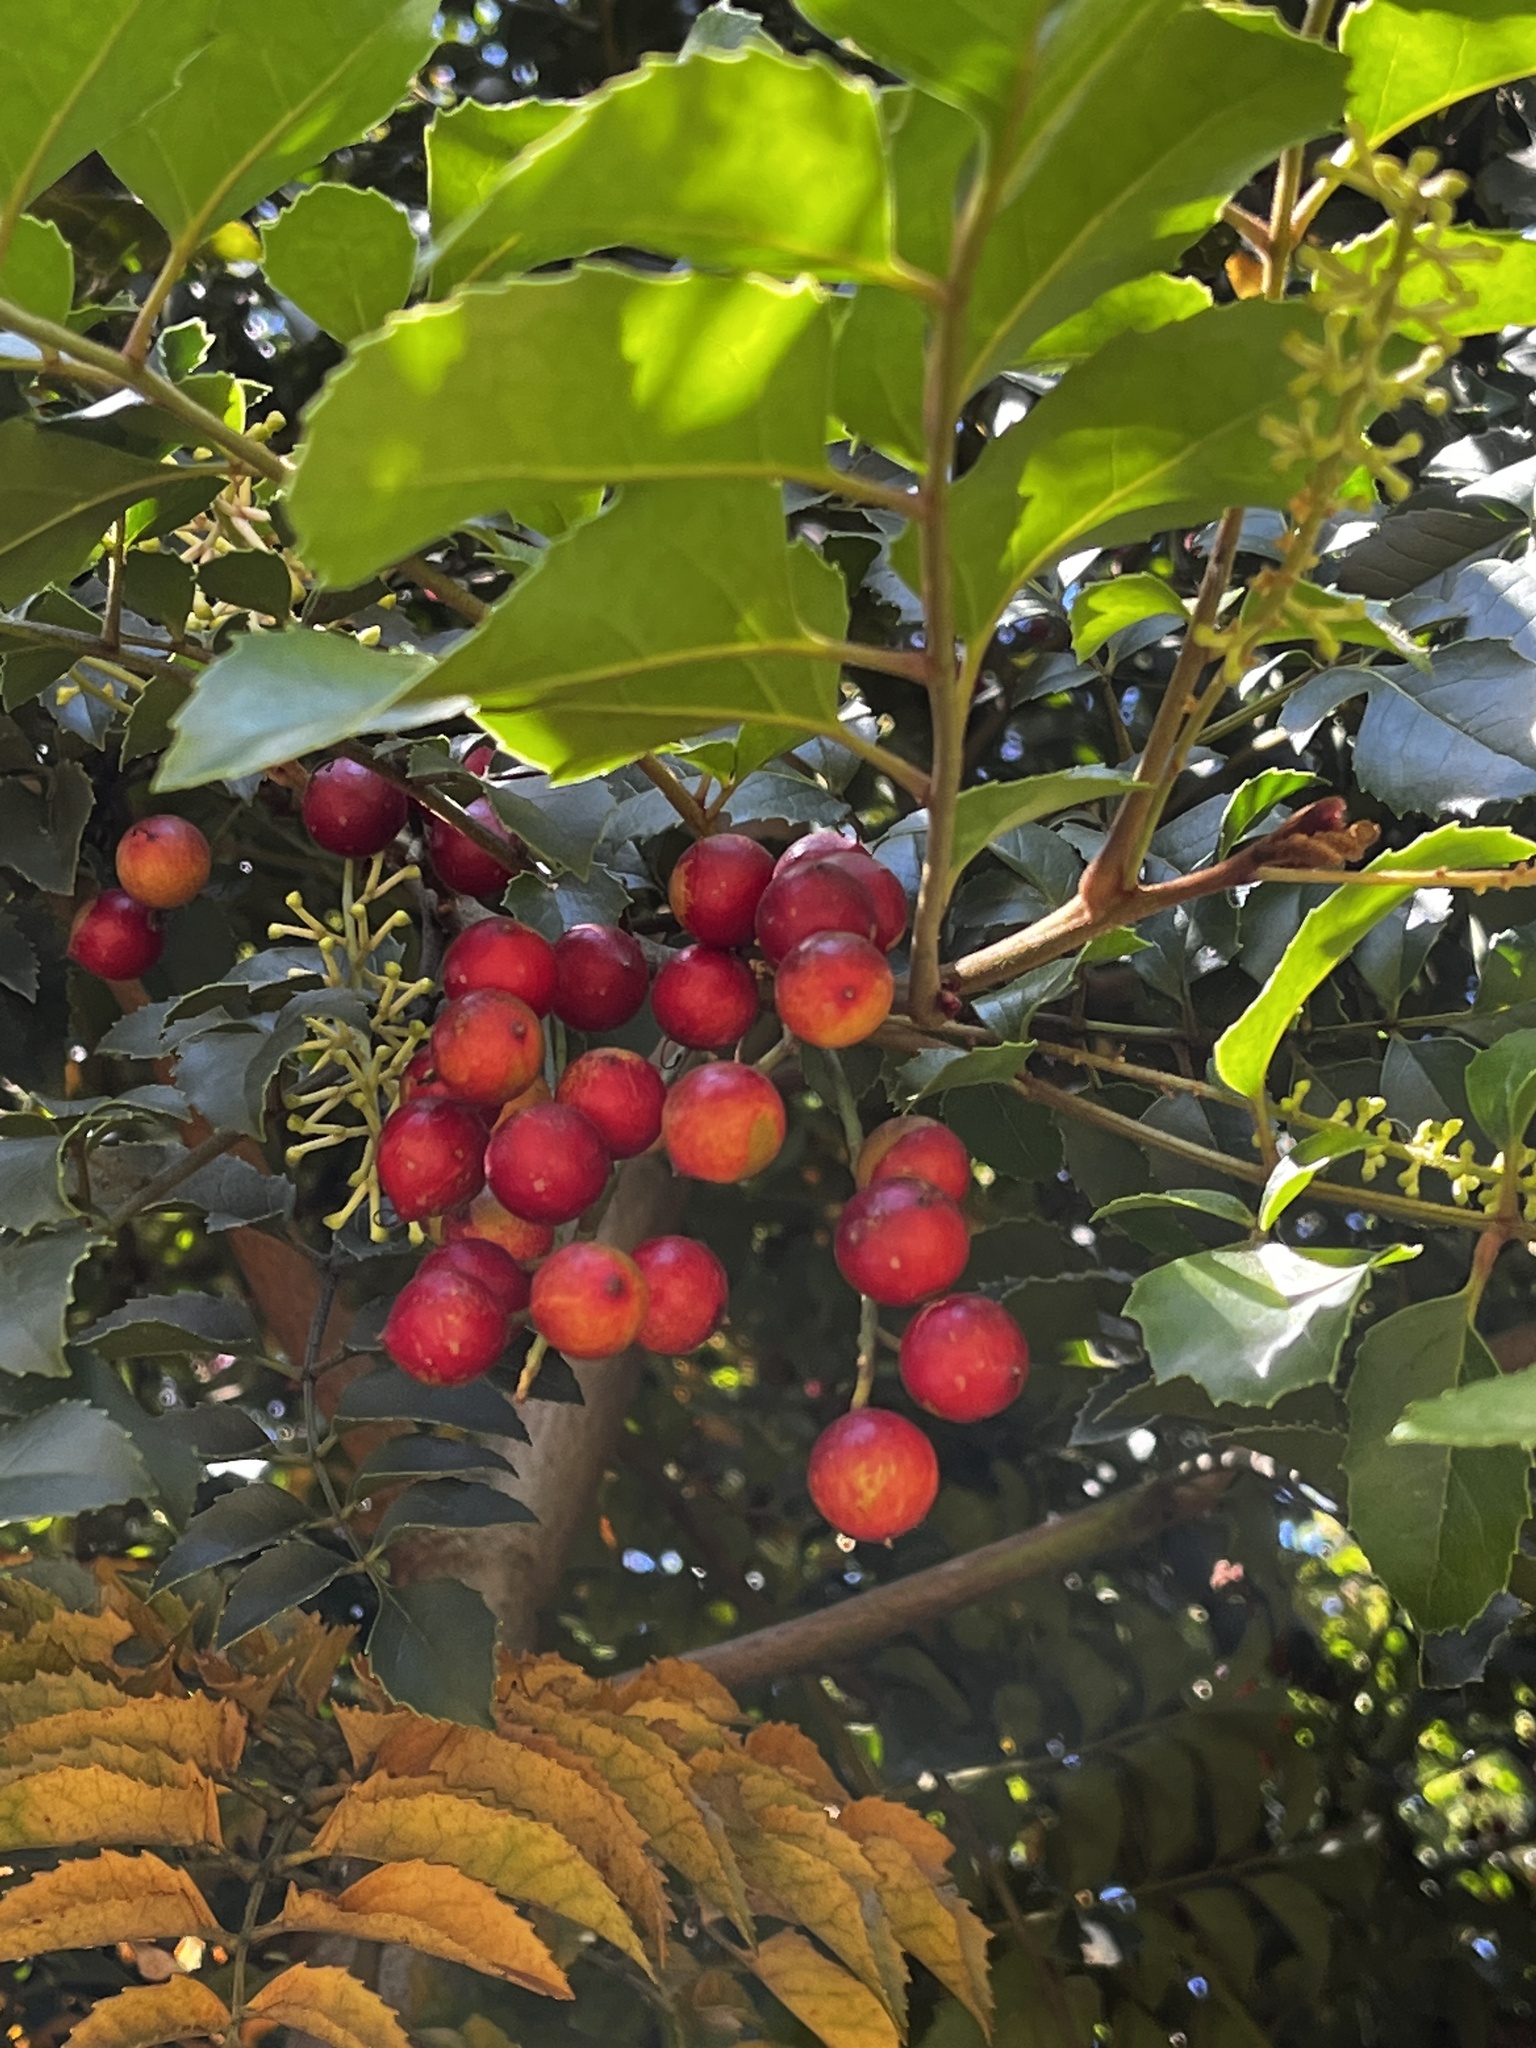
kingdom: Plantae
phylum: Tracheophyta
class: Magnoliopsida
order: Proteales
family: Proteaceae
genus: Gevuina
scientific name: Gevuina avellana
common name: Chilean hazel
